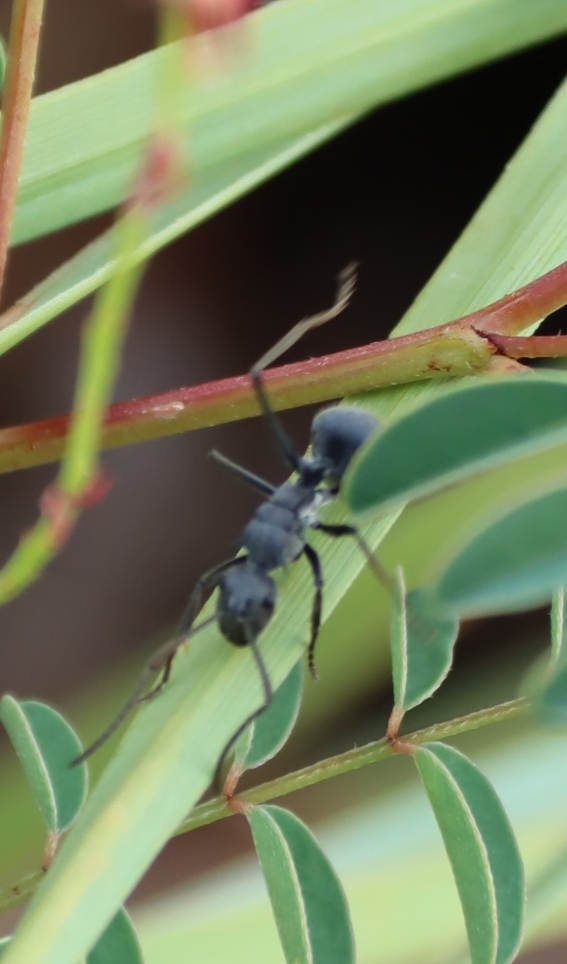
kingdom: Animalia
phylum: Arthropoda
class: Insecta
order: Hymenoptera
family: Formicidae
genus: Polyrhachis
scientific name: Polyrhachis schistacea
